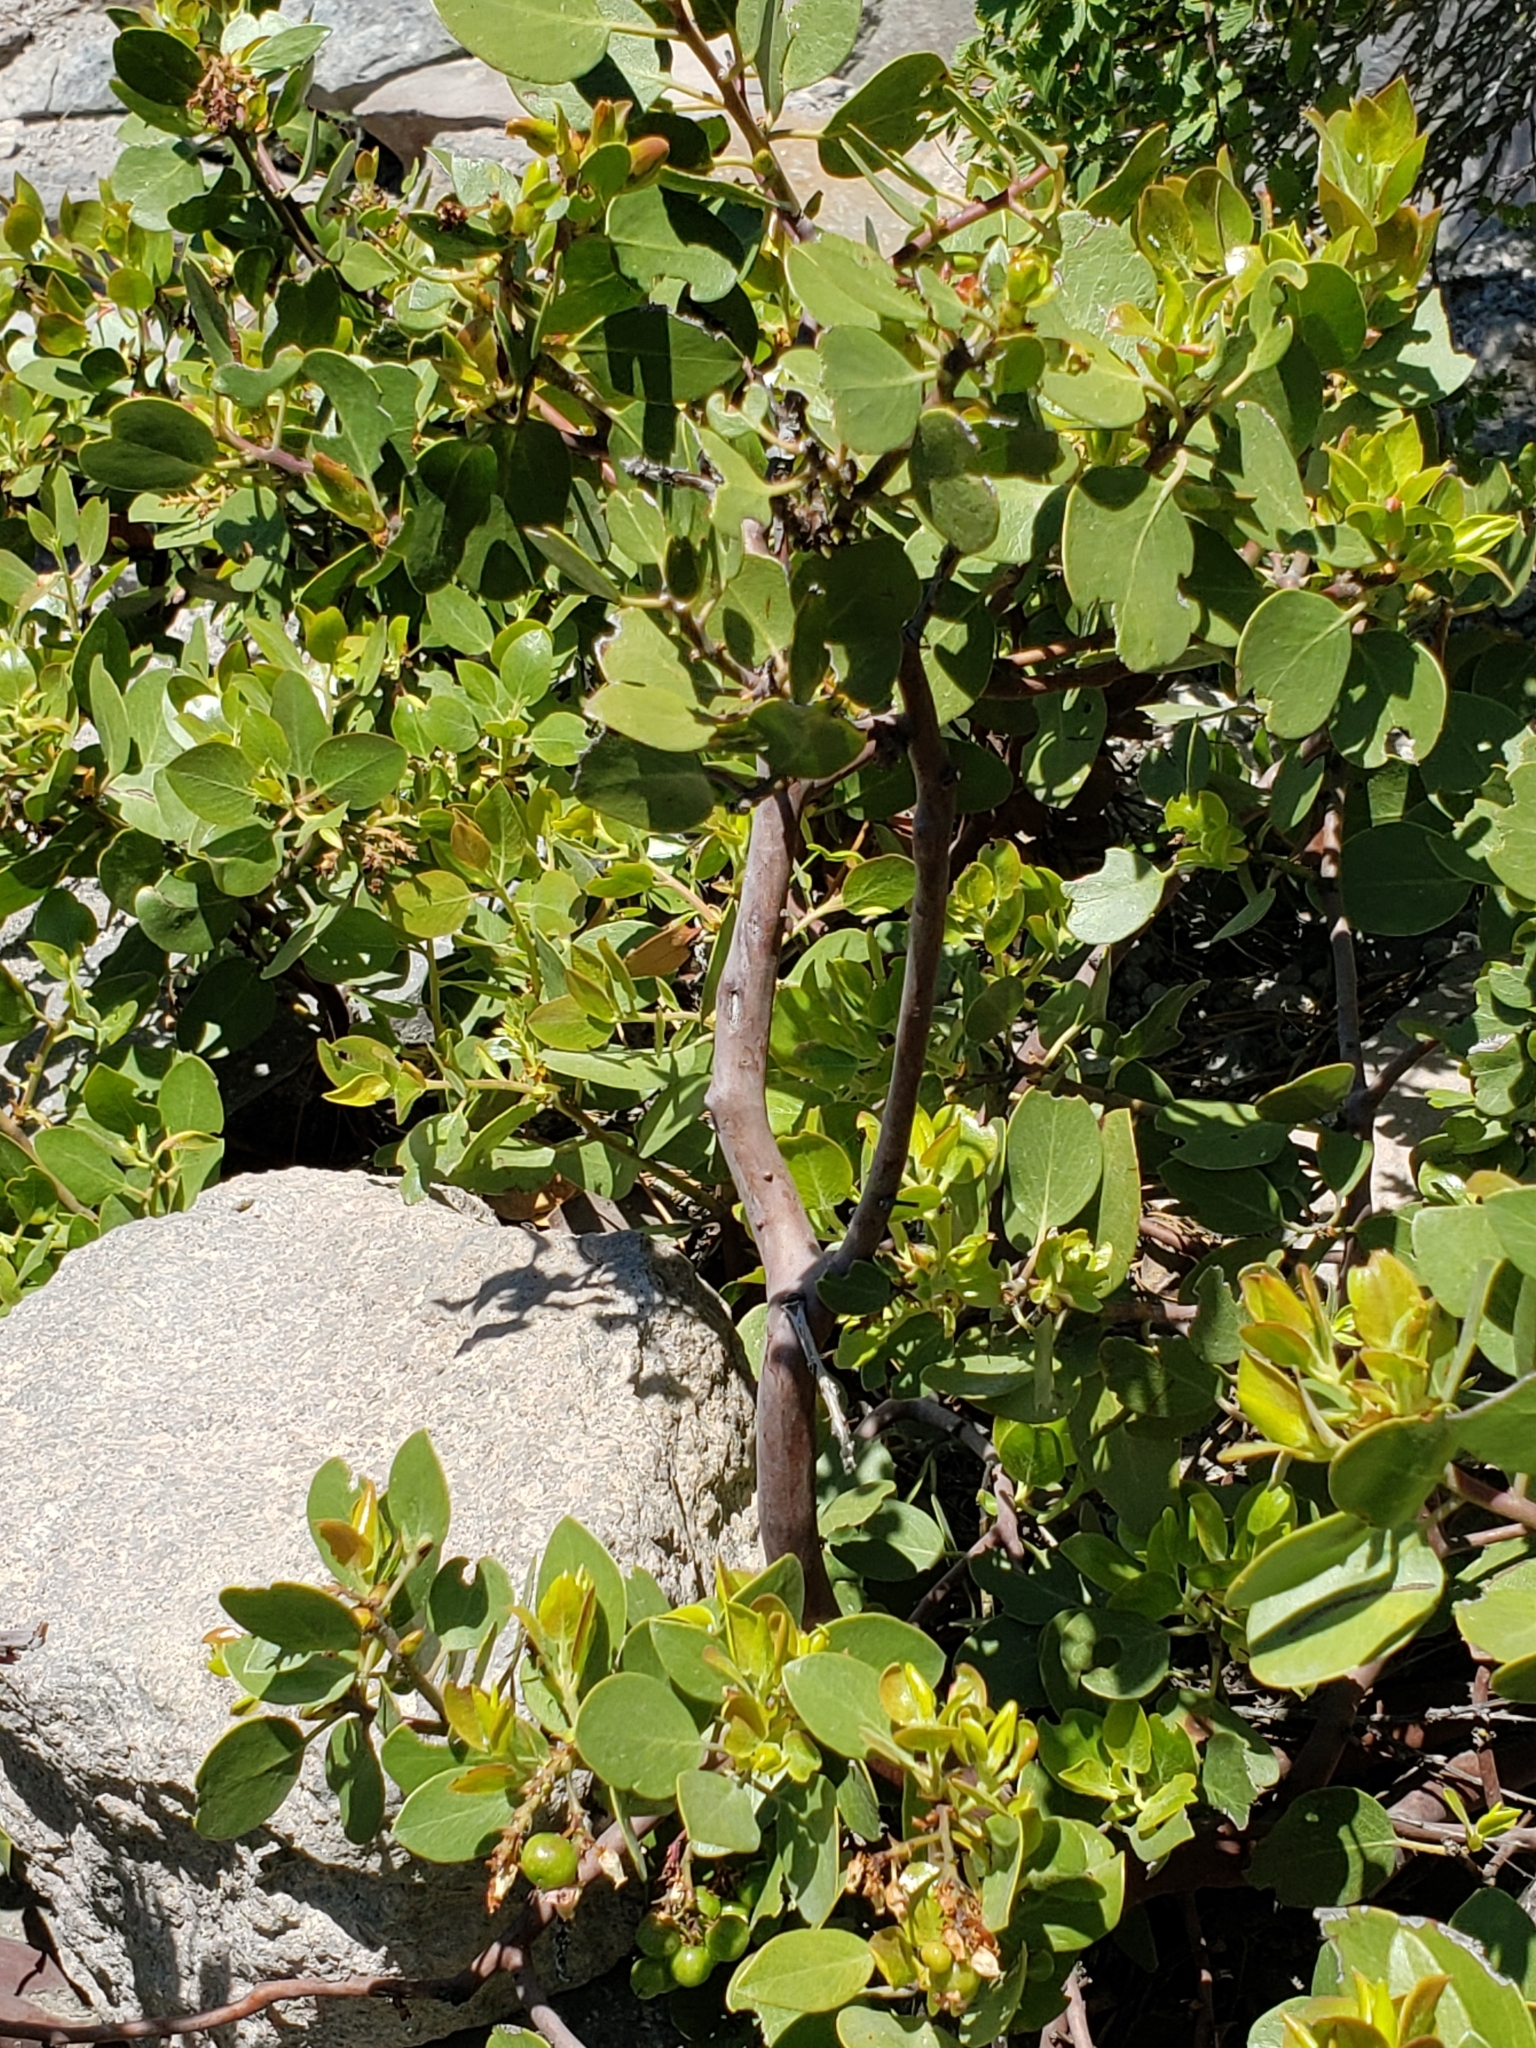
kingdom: Plantae
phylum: Tracheophyta
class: Magnoliopsida
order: Ericales
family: Ericaceae
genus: Arctostaphylos
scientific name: Arctostaphylos patula
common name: Green-leaf manzanita
